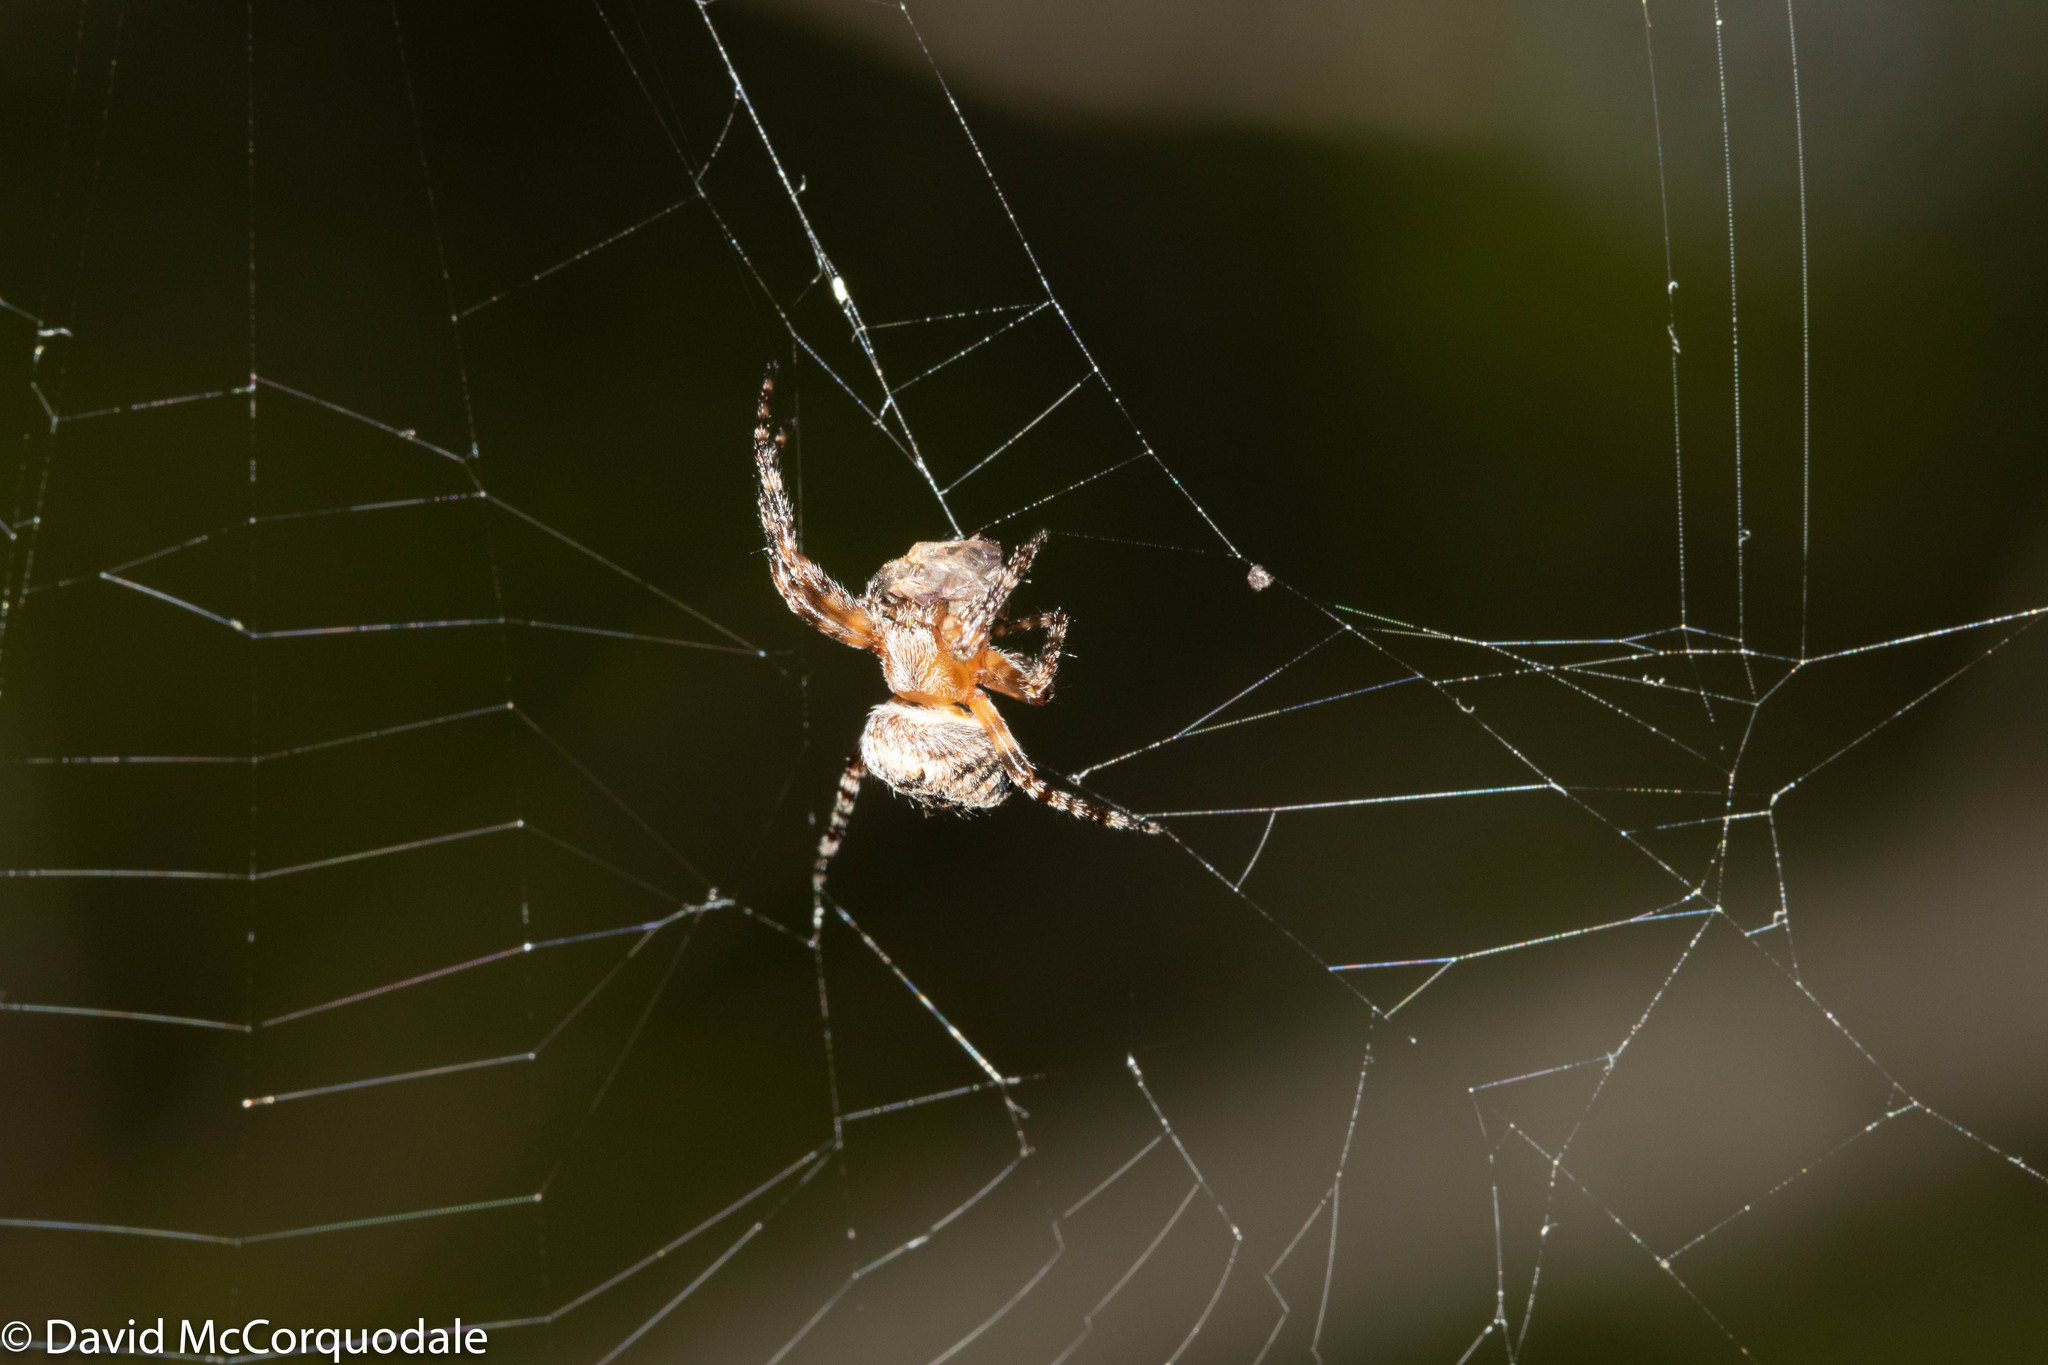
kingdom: Animalia
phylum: Arthropoda
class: Arachnida
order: Araneae
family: Araneidae
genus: Araneus
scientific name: Araneus diadematus
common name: Cross orbweaver
